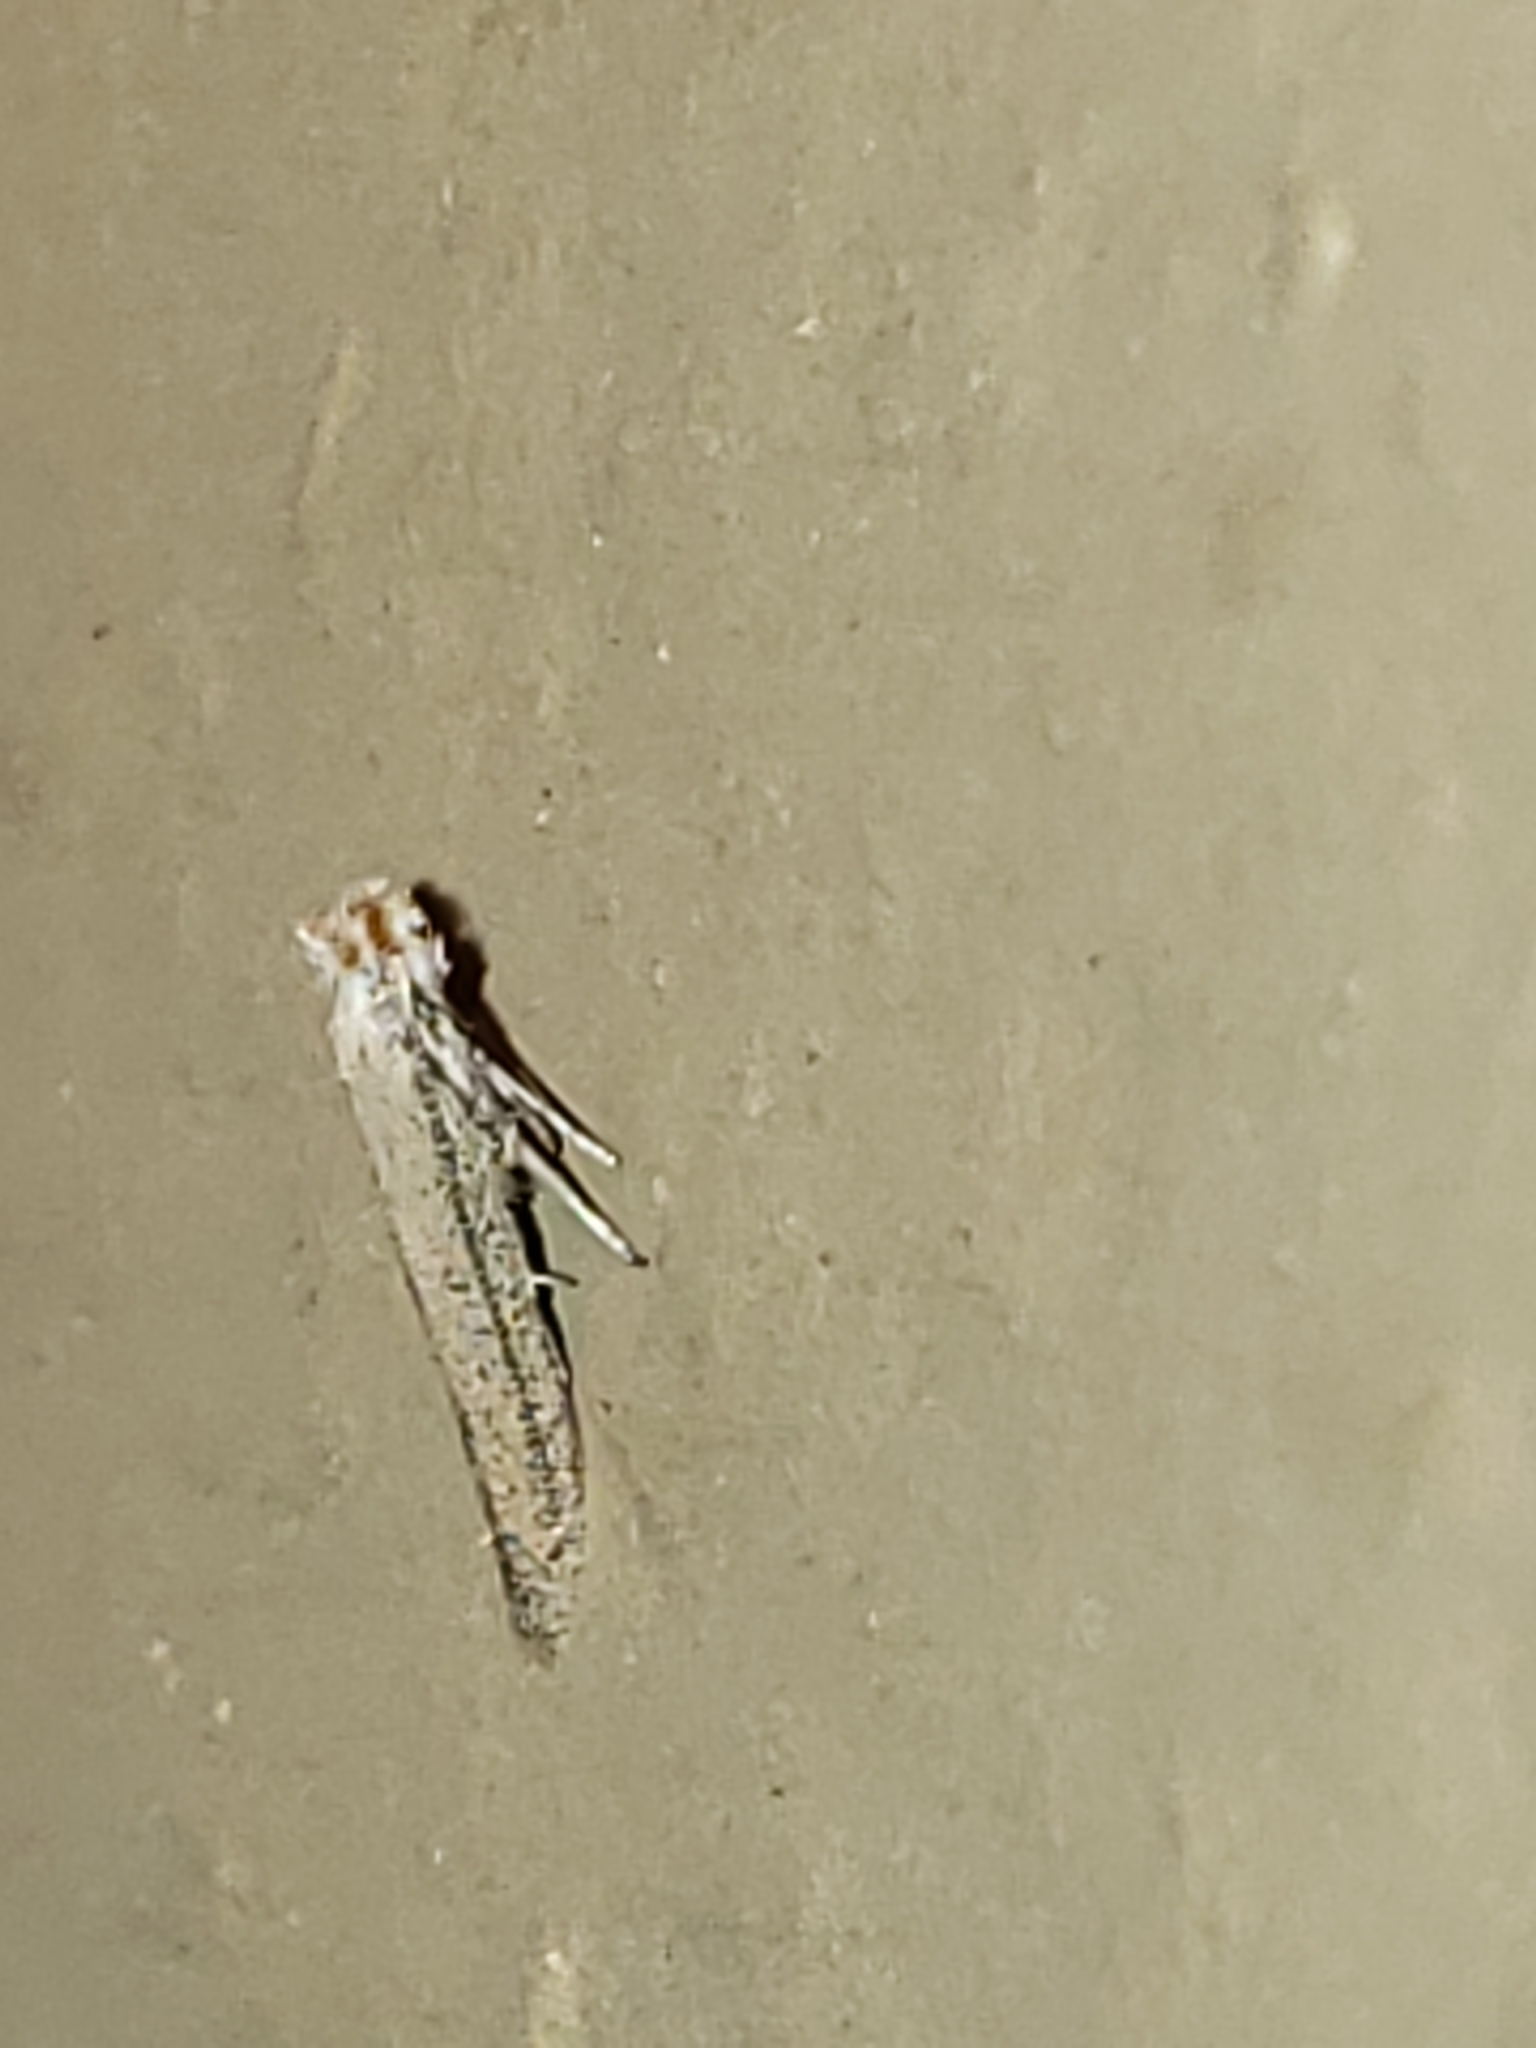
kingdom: Animalia
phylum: Arthropoda
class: Insecta
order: Lepidoptera
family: Bedelliidae
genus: Bedellia
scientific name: Bedellia somnulentella
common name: Morning-glory leafminer moth
